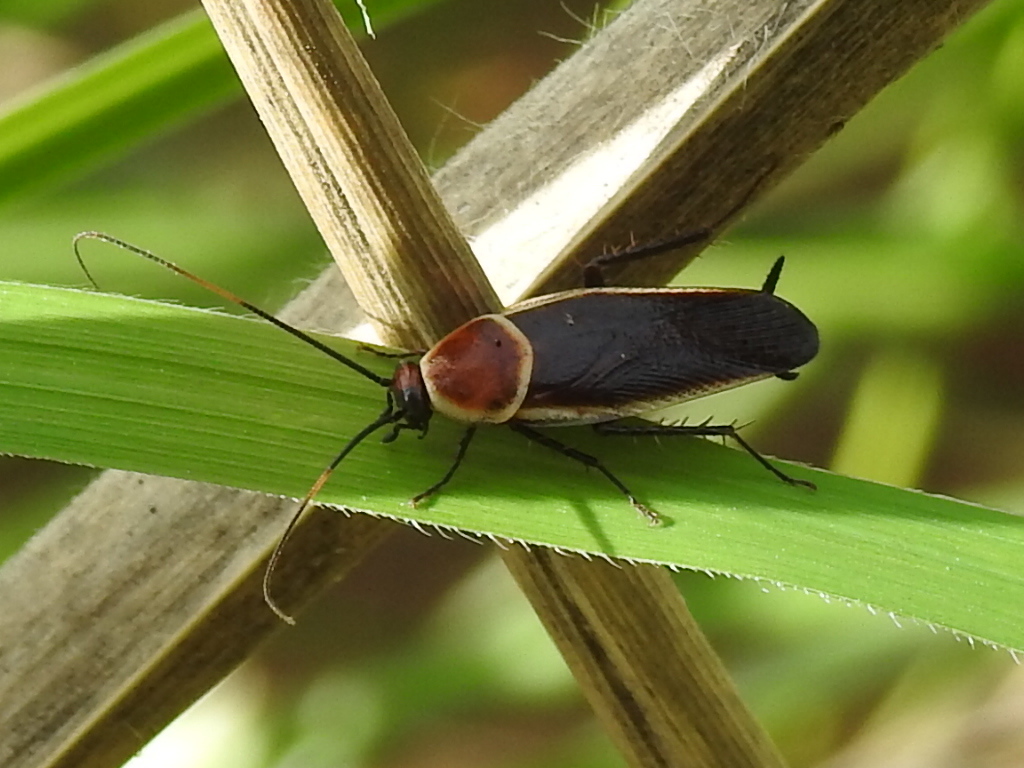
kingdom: Animalia
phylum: Arthropoda
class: Insecta
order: Blattodea
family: Ectobiidae
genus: Pseudomops
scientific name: Pseudomops septentrionalis
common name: Pale-bordered field cockroach
